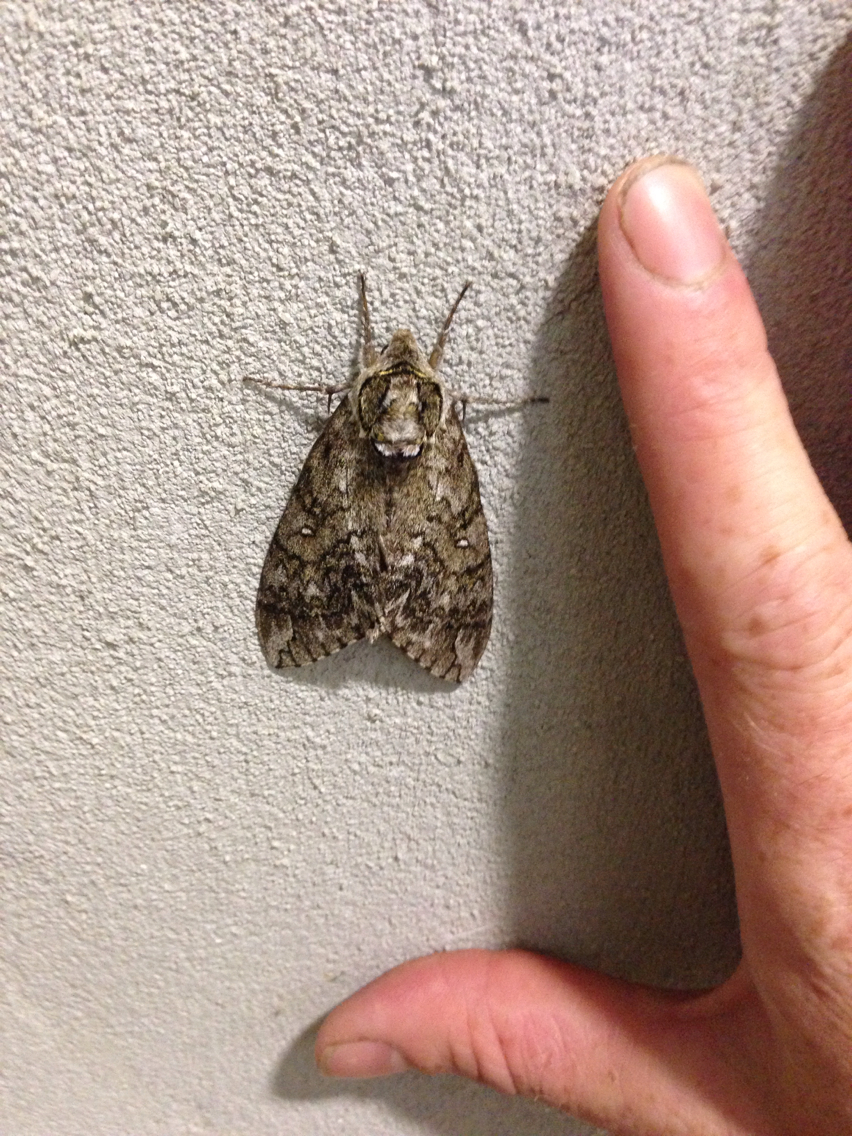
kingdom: Animalia
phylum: Arthropoda
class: Insecta
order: Lepidoptera
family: Sphingidae
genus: Ceratomia
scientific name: Ceratomia undulosa
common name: Waved sphinx
